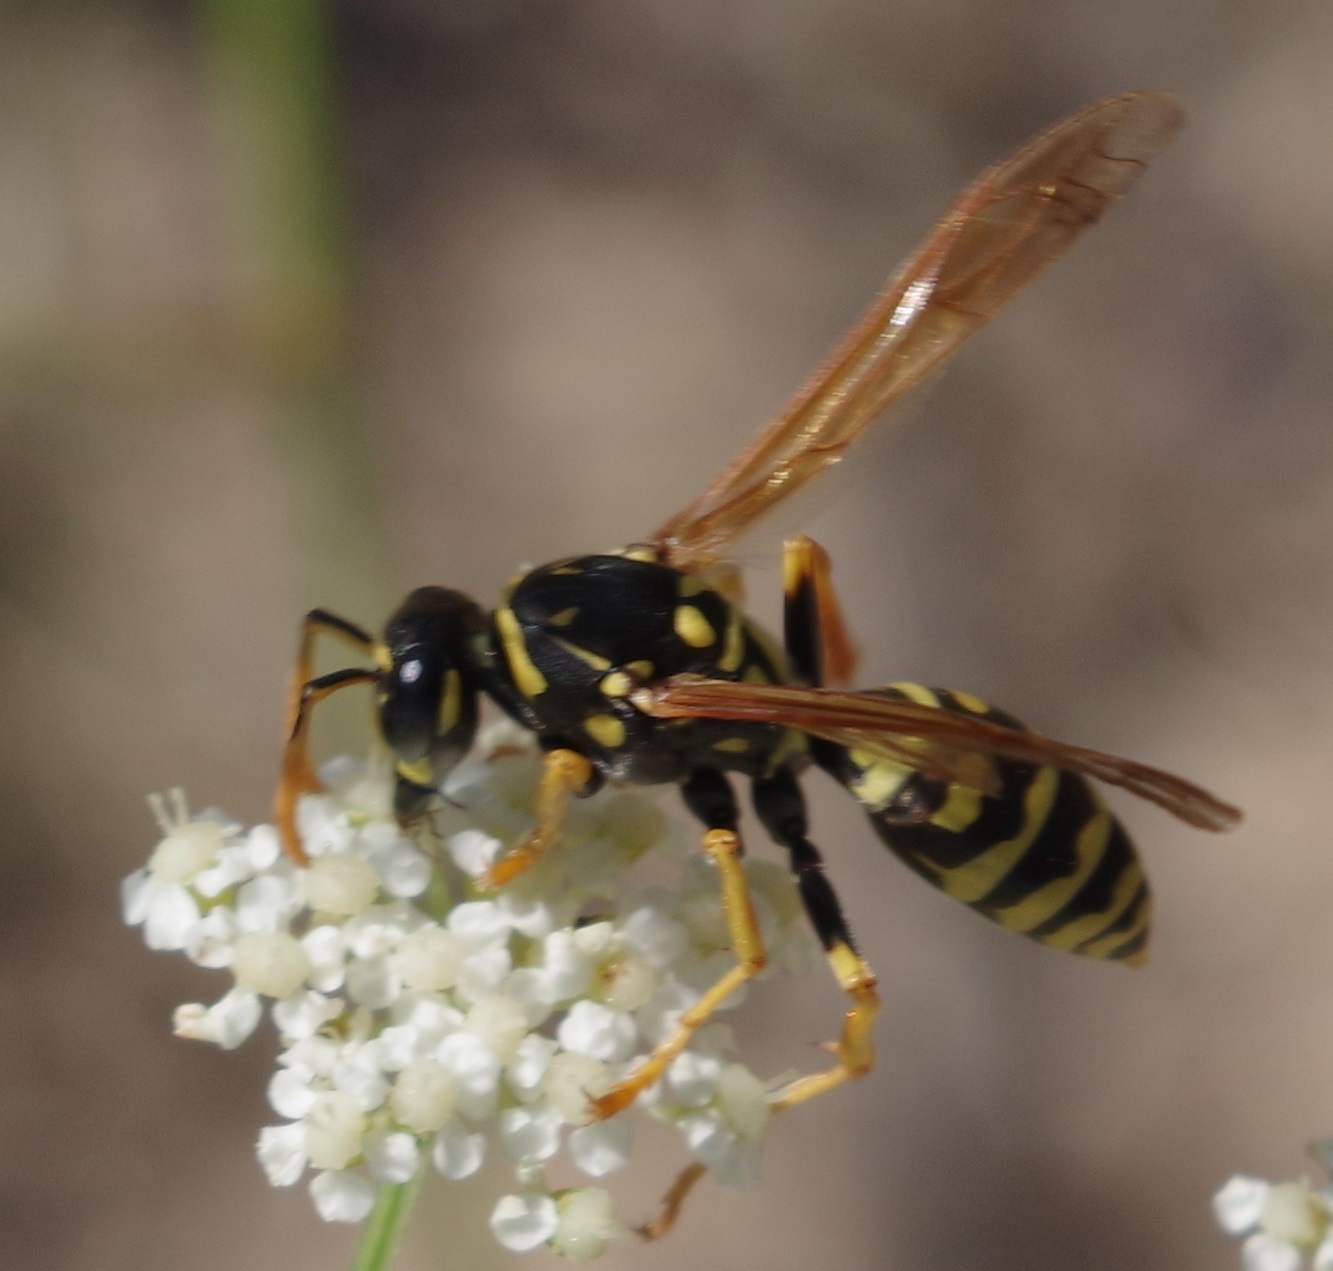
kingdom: Animalia
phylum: Arthropoda
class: Insecta
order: Hymenoptera
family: Eumenidae
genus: Polistes
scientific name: Polistes dominula
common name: Paper wasp
